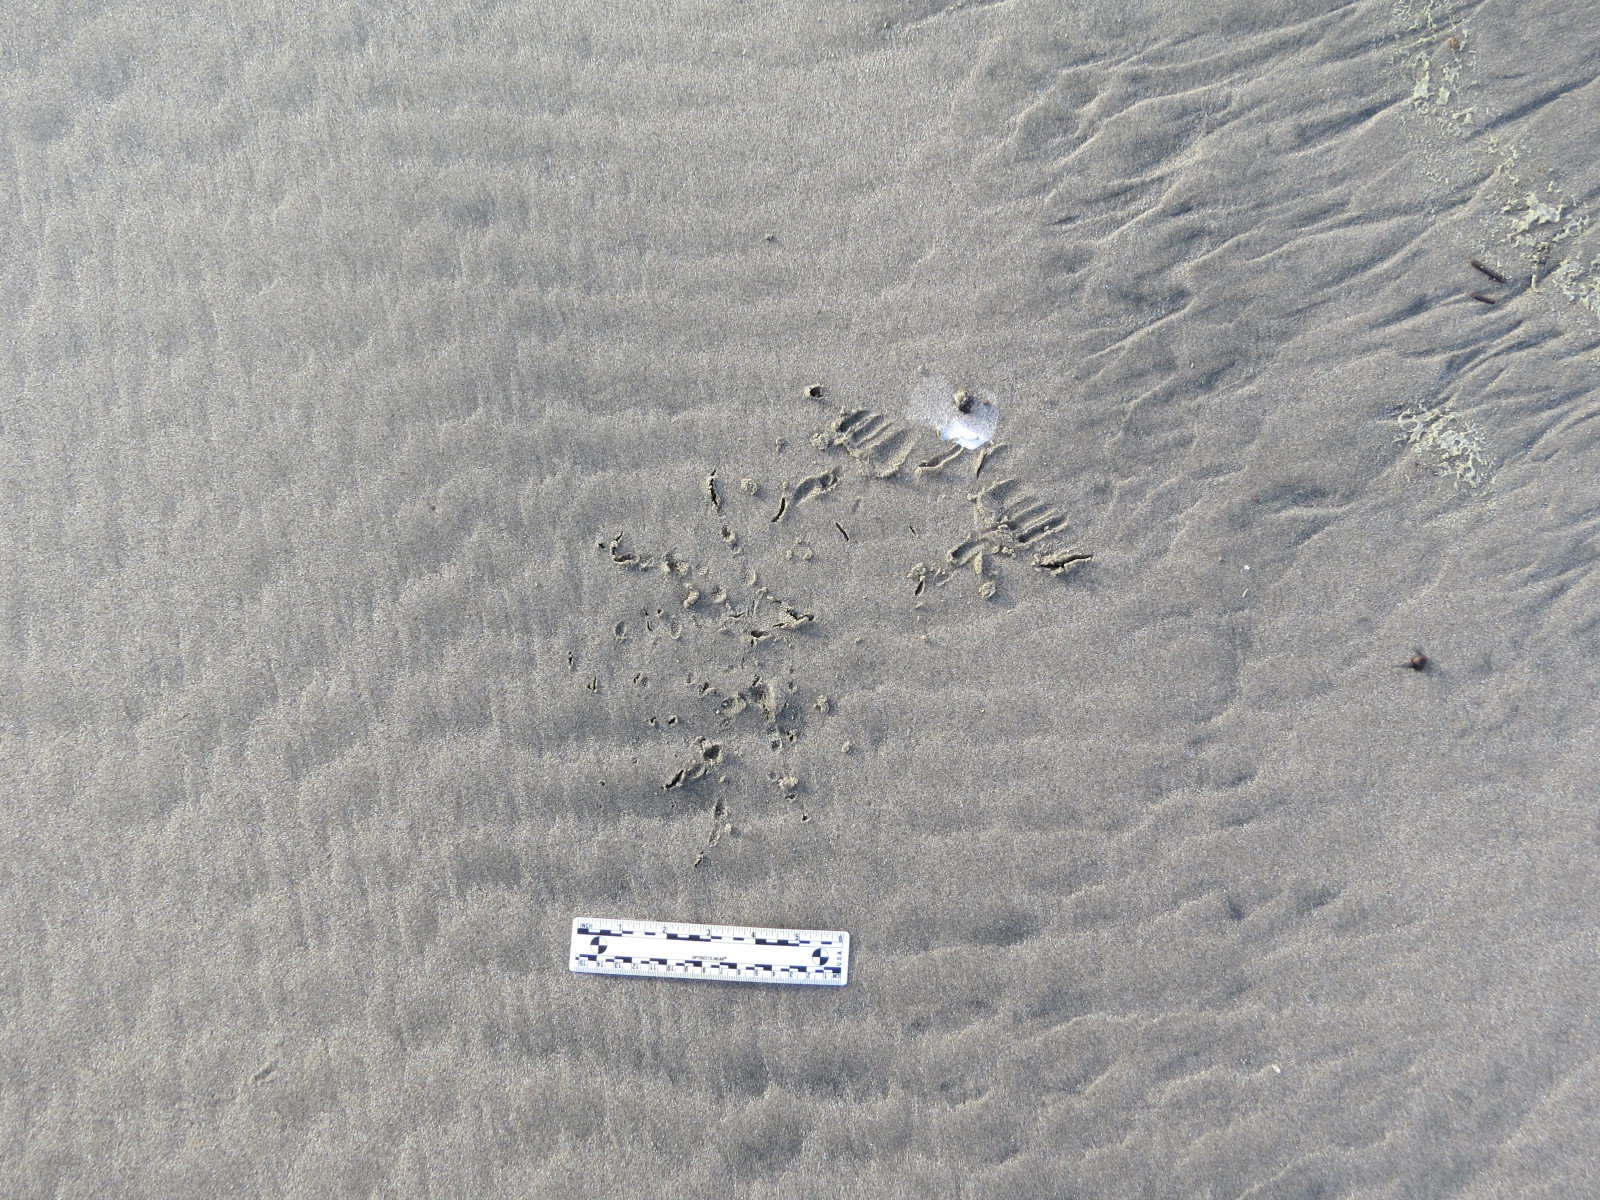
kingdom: Animalia
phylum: Chordata
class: Aves
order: Strigiformes
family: Strigidae
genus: Bubo
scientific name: Bubo virginianus
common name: Great horned owl
